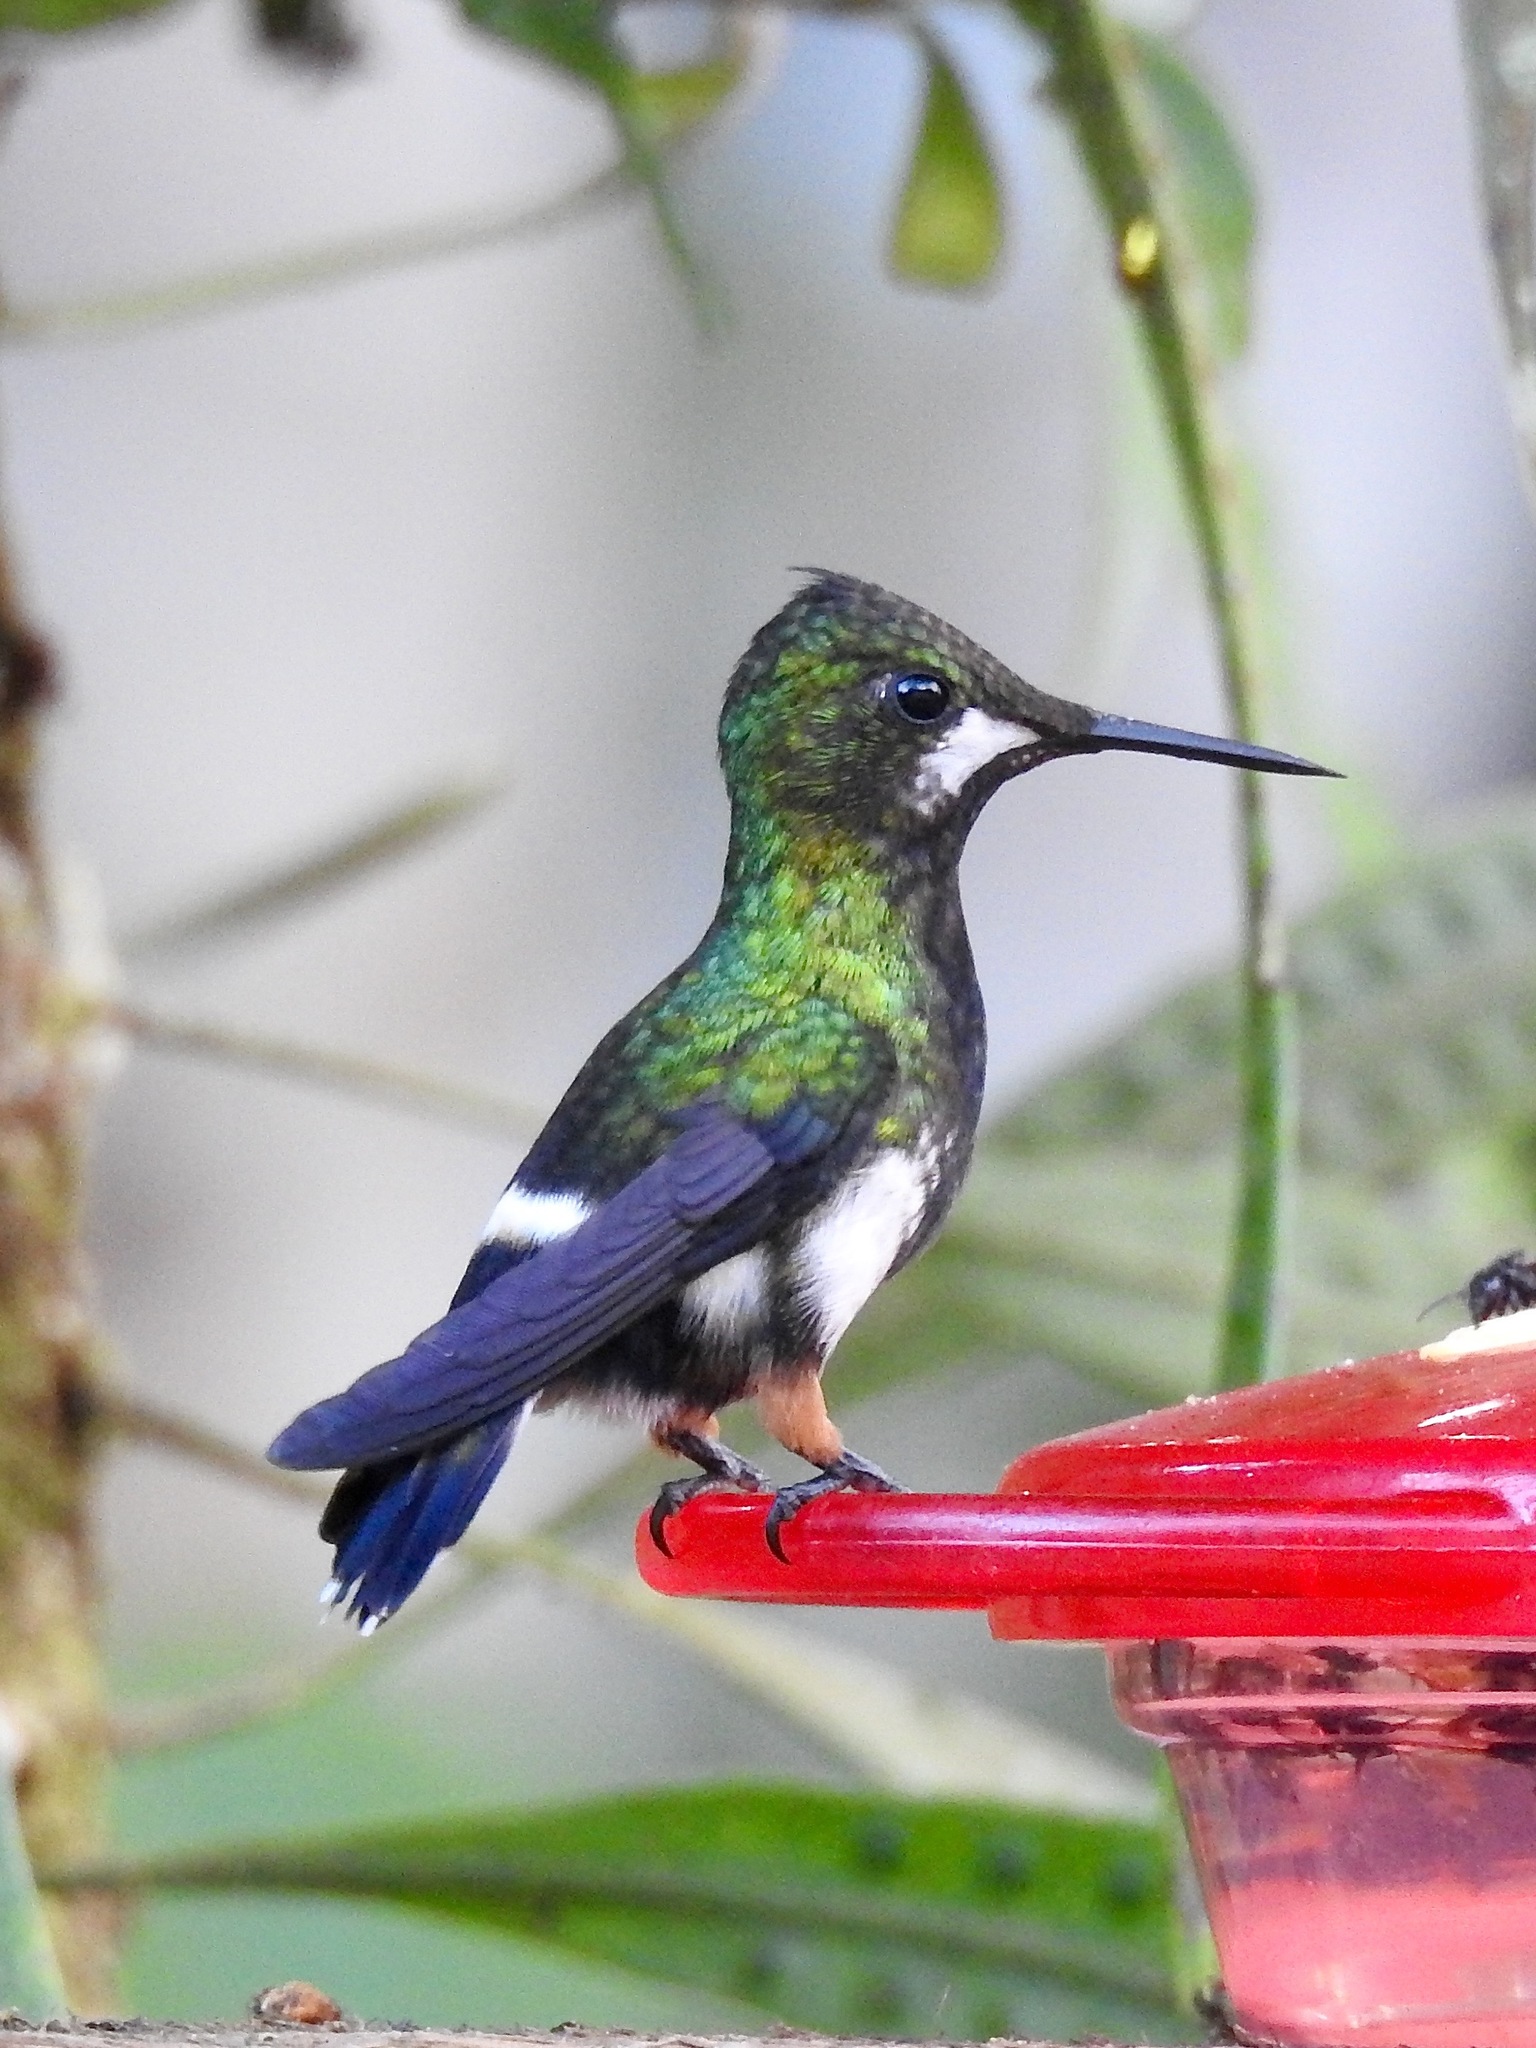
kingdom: Animalia
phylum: Chordata
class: Aves
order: Apodiformes
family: Trochilidae
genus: Discosura
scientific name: Discosura popelairii
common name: Wire-crested thorntail
